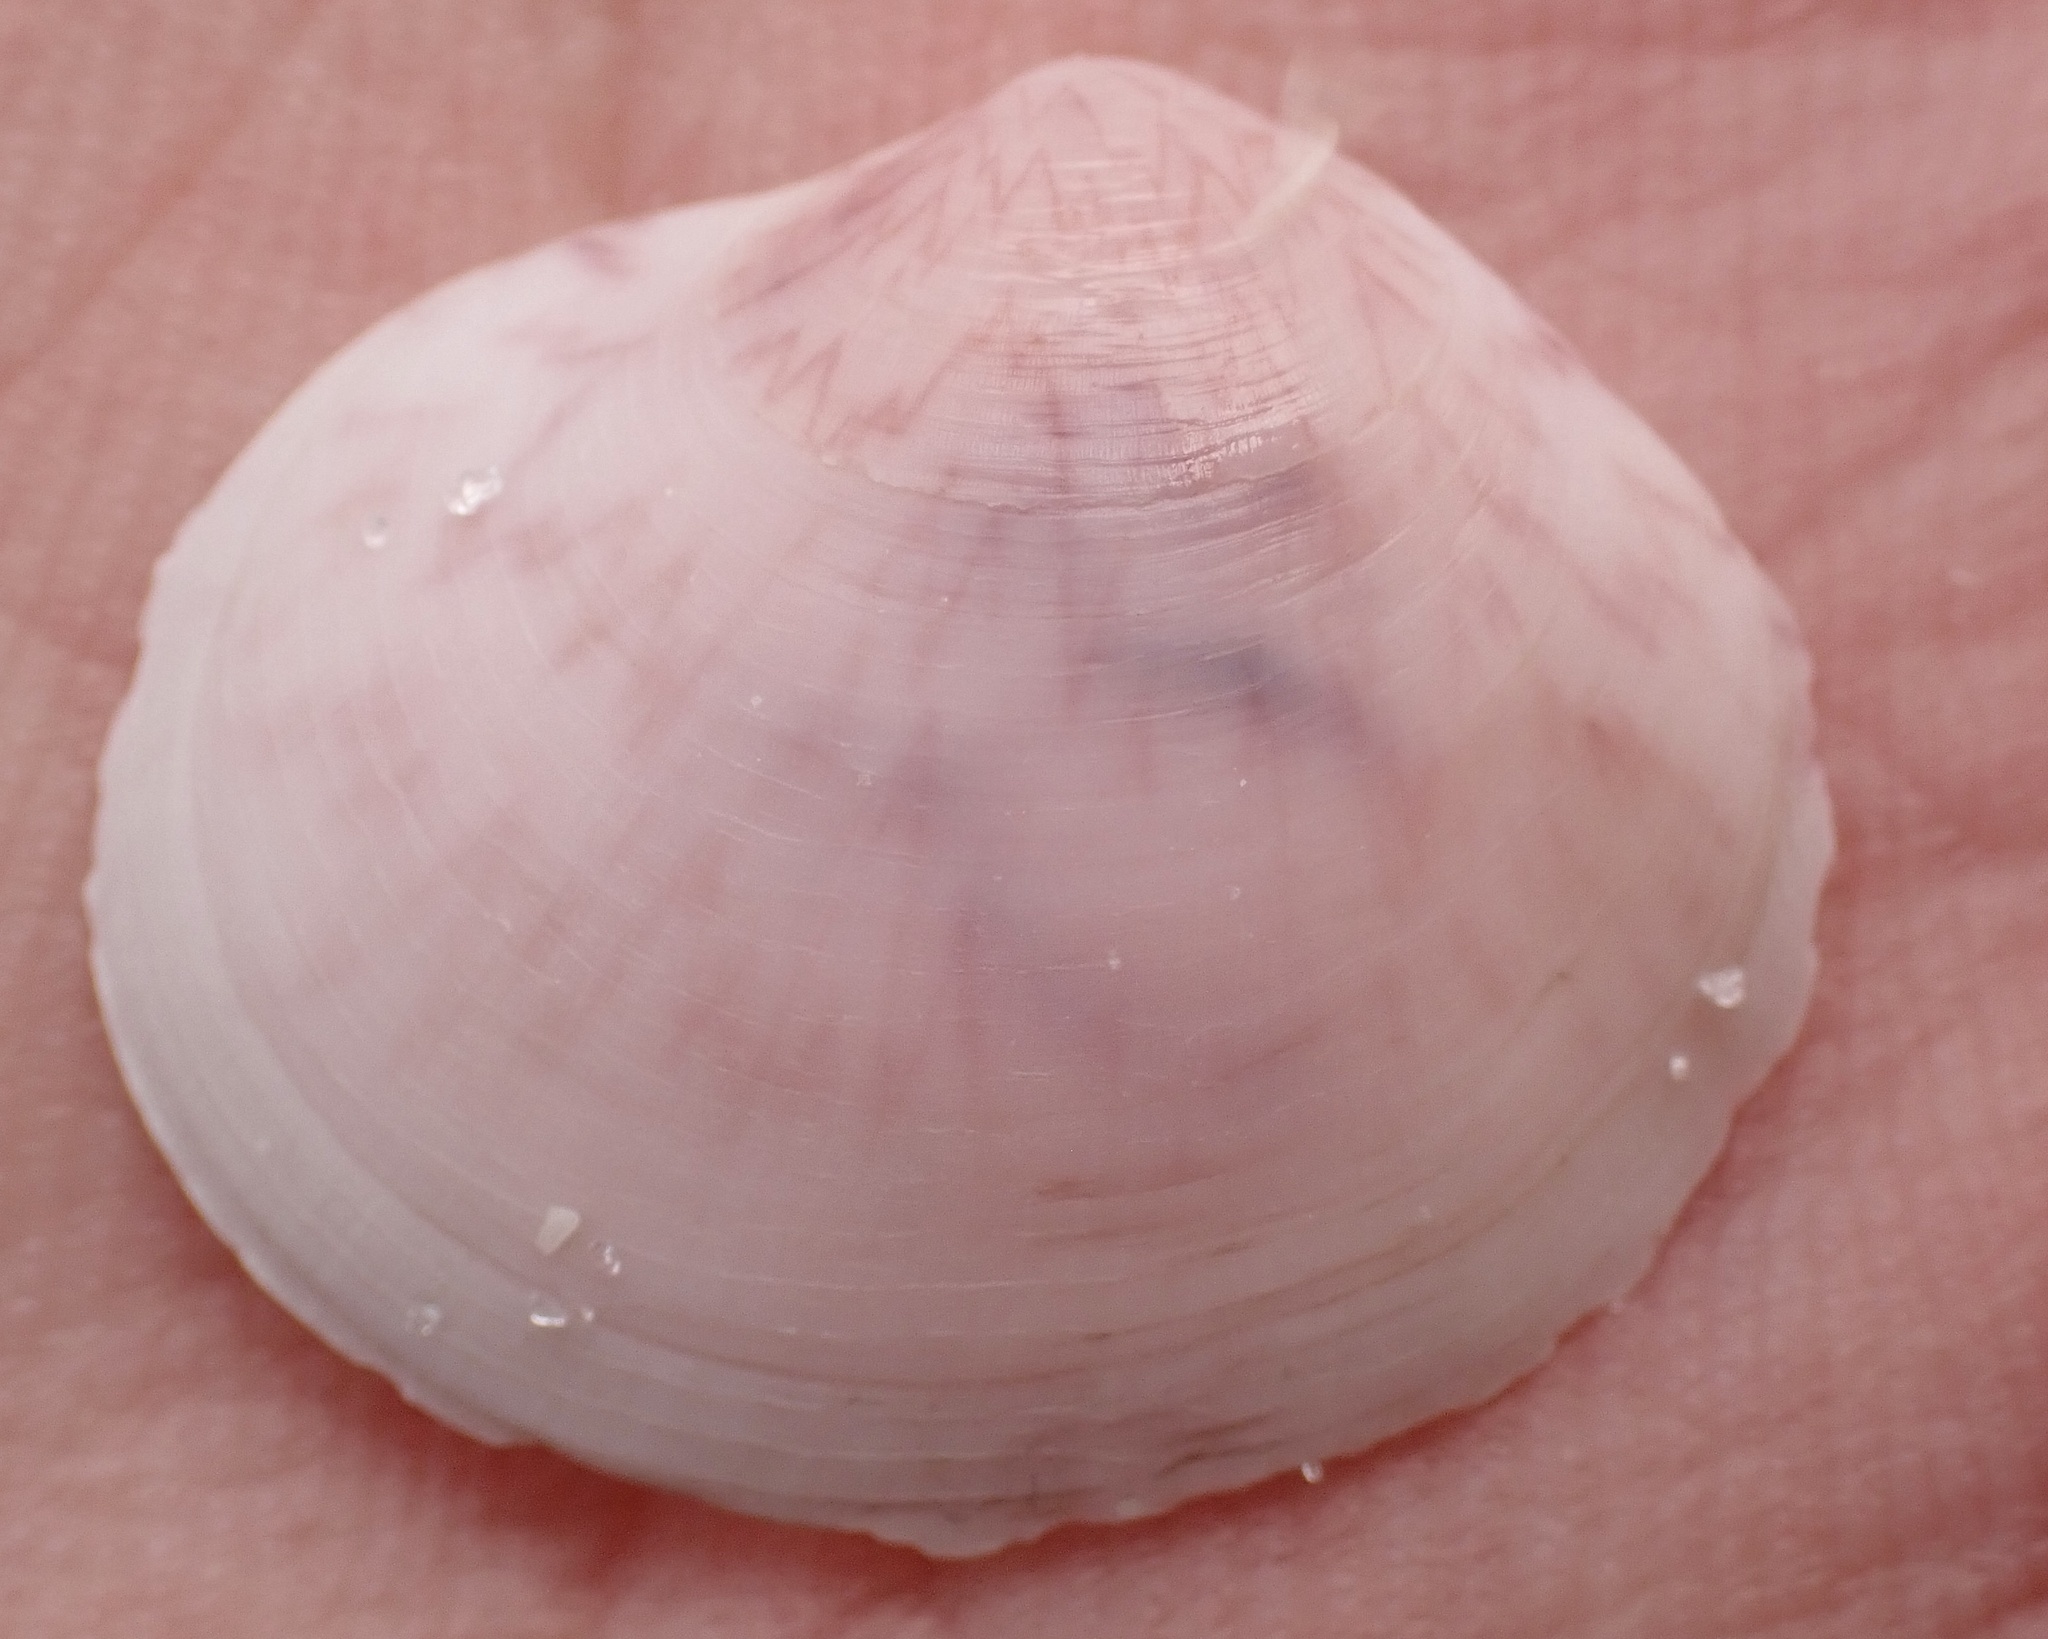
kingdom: Animalia
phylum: Mollusca
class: Bivalvia
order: Cardiida
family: Semelidae
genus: Semele
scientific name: Semele proficua
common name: White atlantic semele
